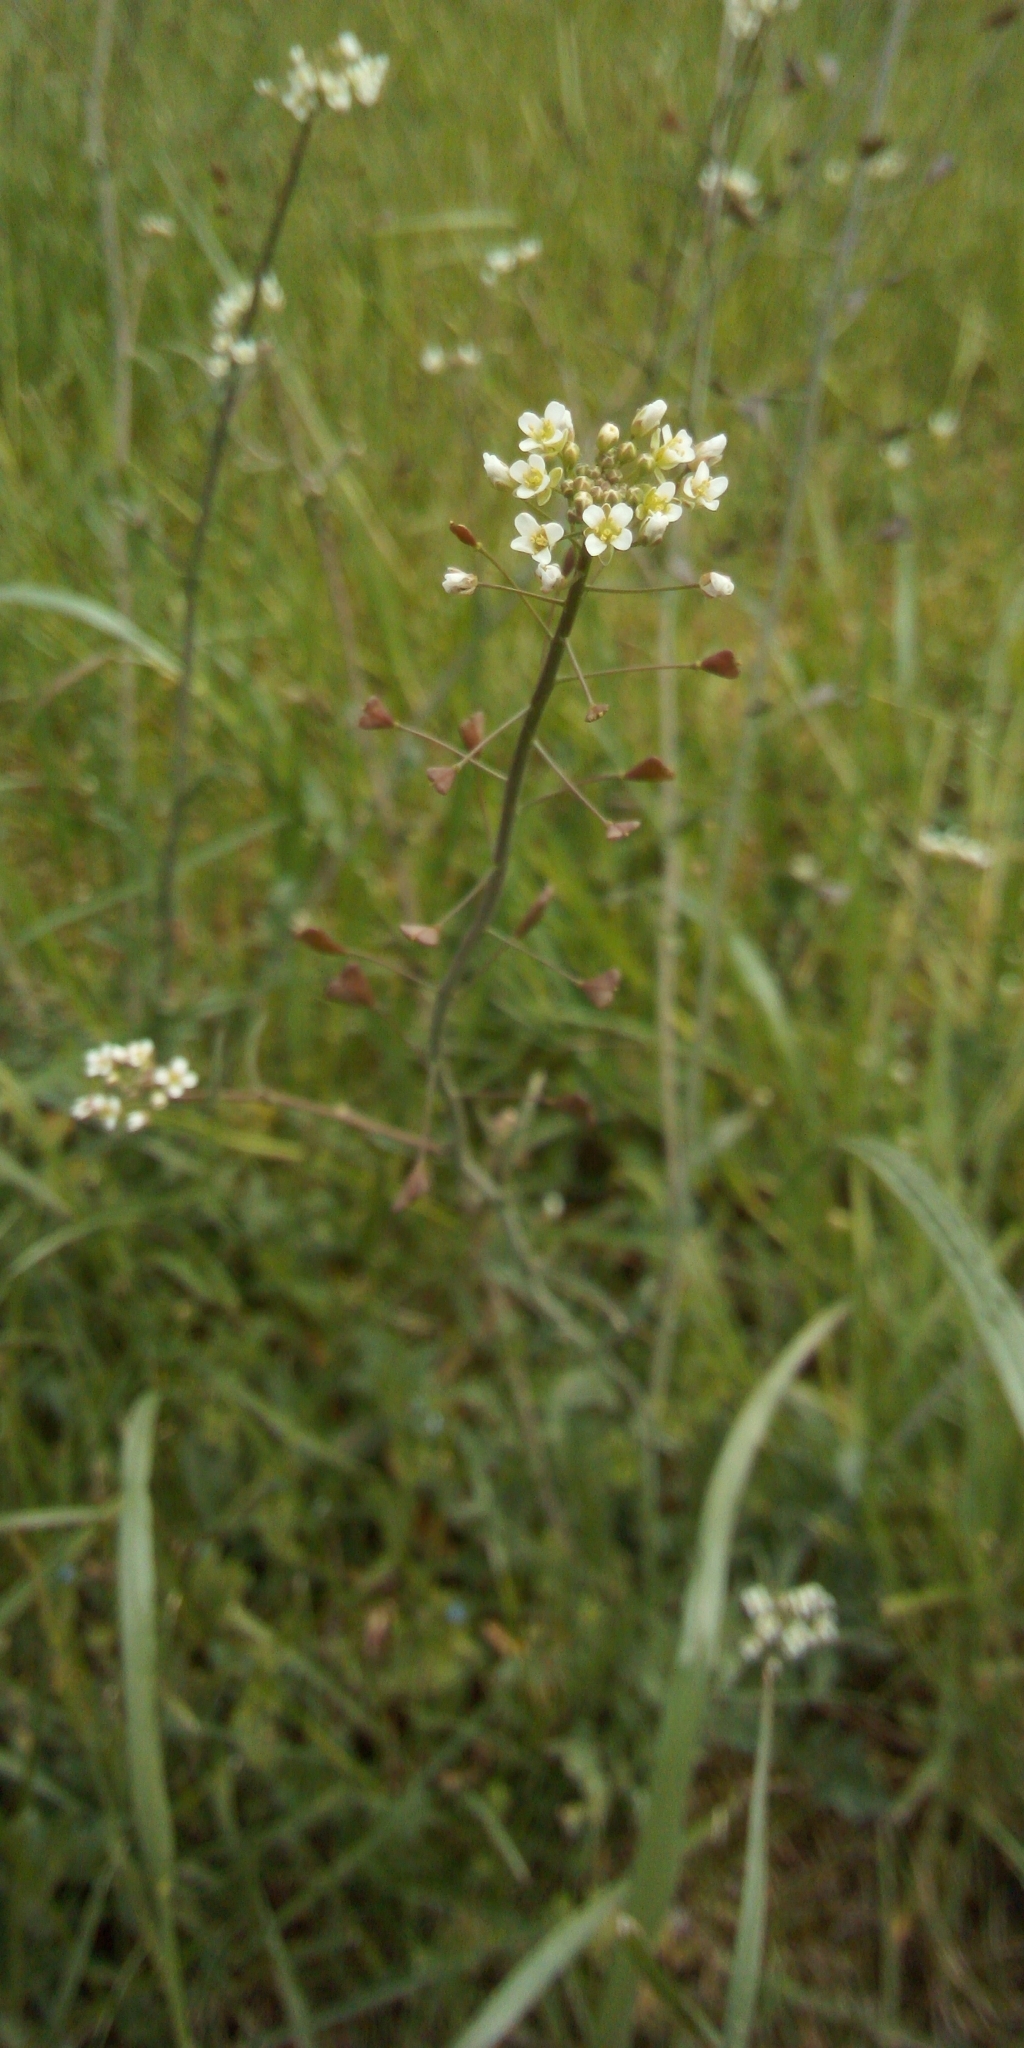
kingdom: Plantae
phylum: Tracheophyta
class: Magnoliopsida
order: Brassicales
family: Brassicaceae
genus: Capsella
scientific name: Capsella bursa-pastoris
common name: Shepherd's purse
